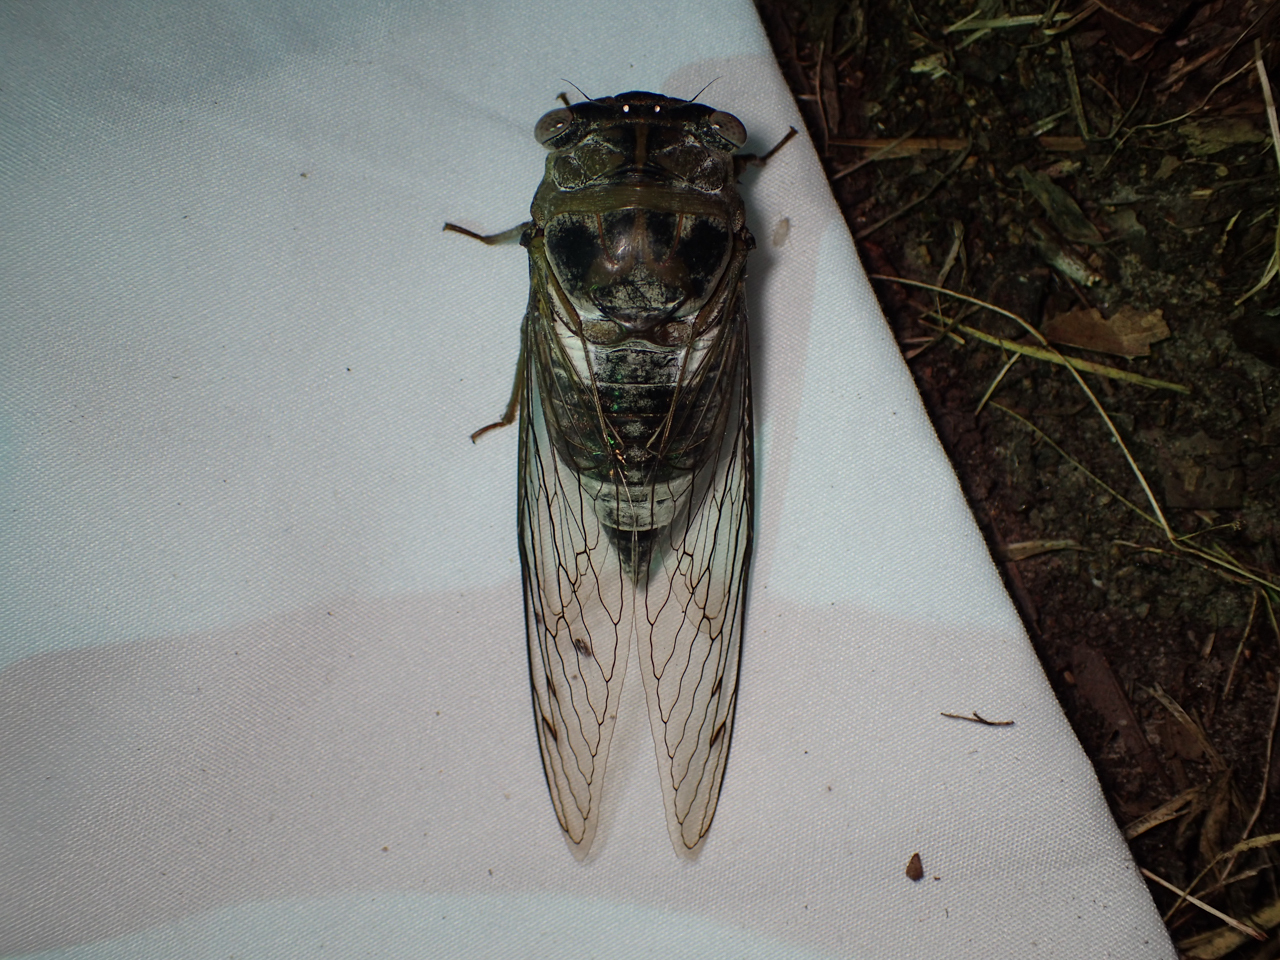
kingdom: Animalia
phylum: Arthropoda
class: Insecta
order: Hemiptera
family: Cicadidae
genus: Diceroprocta
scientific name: Diceroprocta grossa
